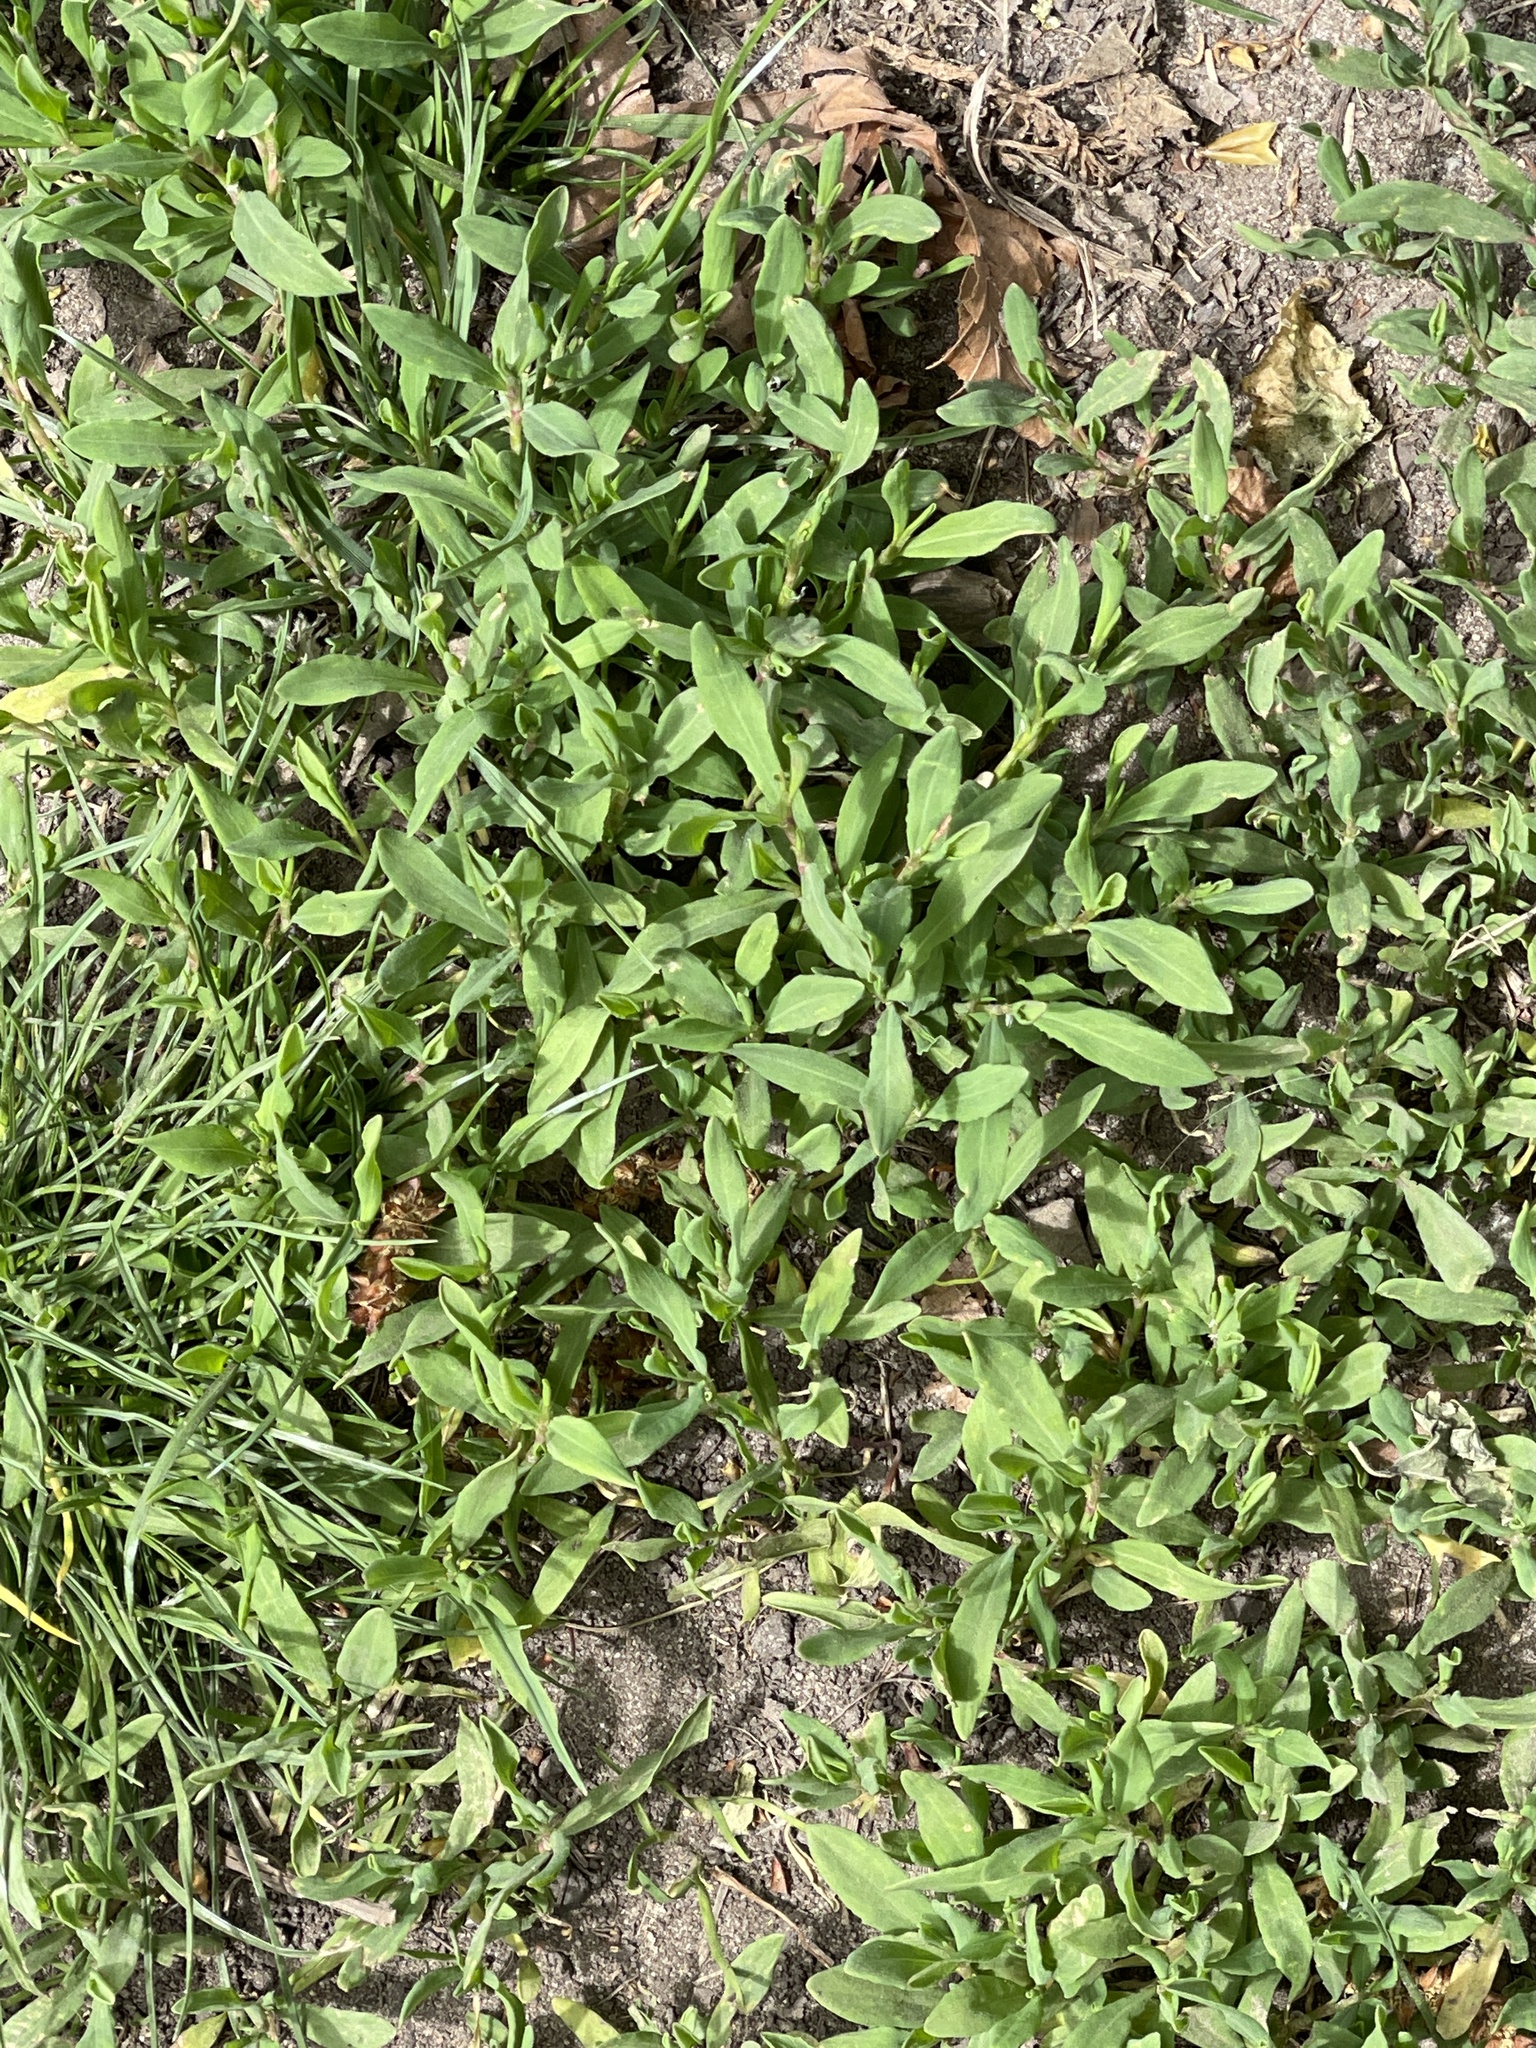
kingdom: Plantae
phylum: Tracheophyta
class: Magnoliopsida
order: Caryophyllales
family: Polygonaceae
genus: Polygonum
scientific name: Polygonum aviculare
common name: Prostrate knotweed
